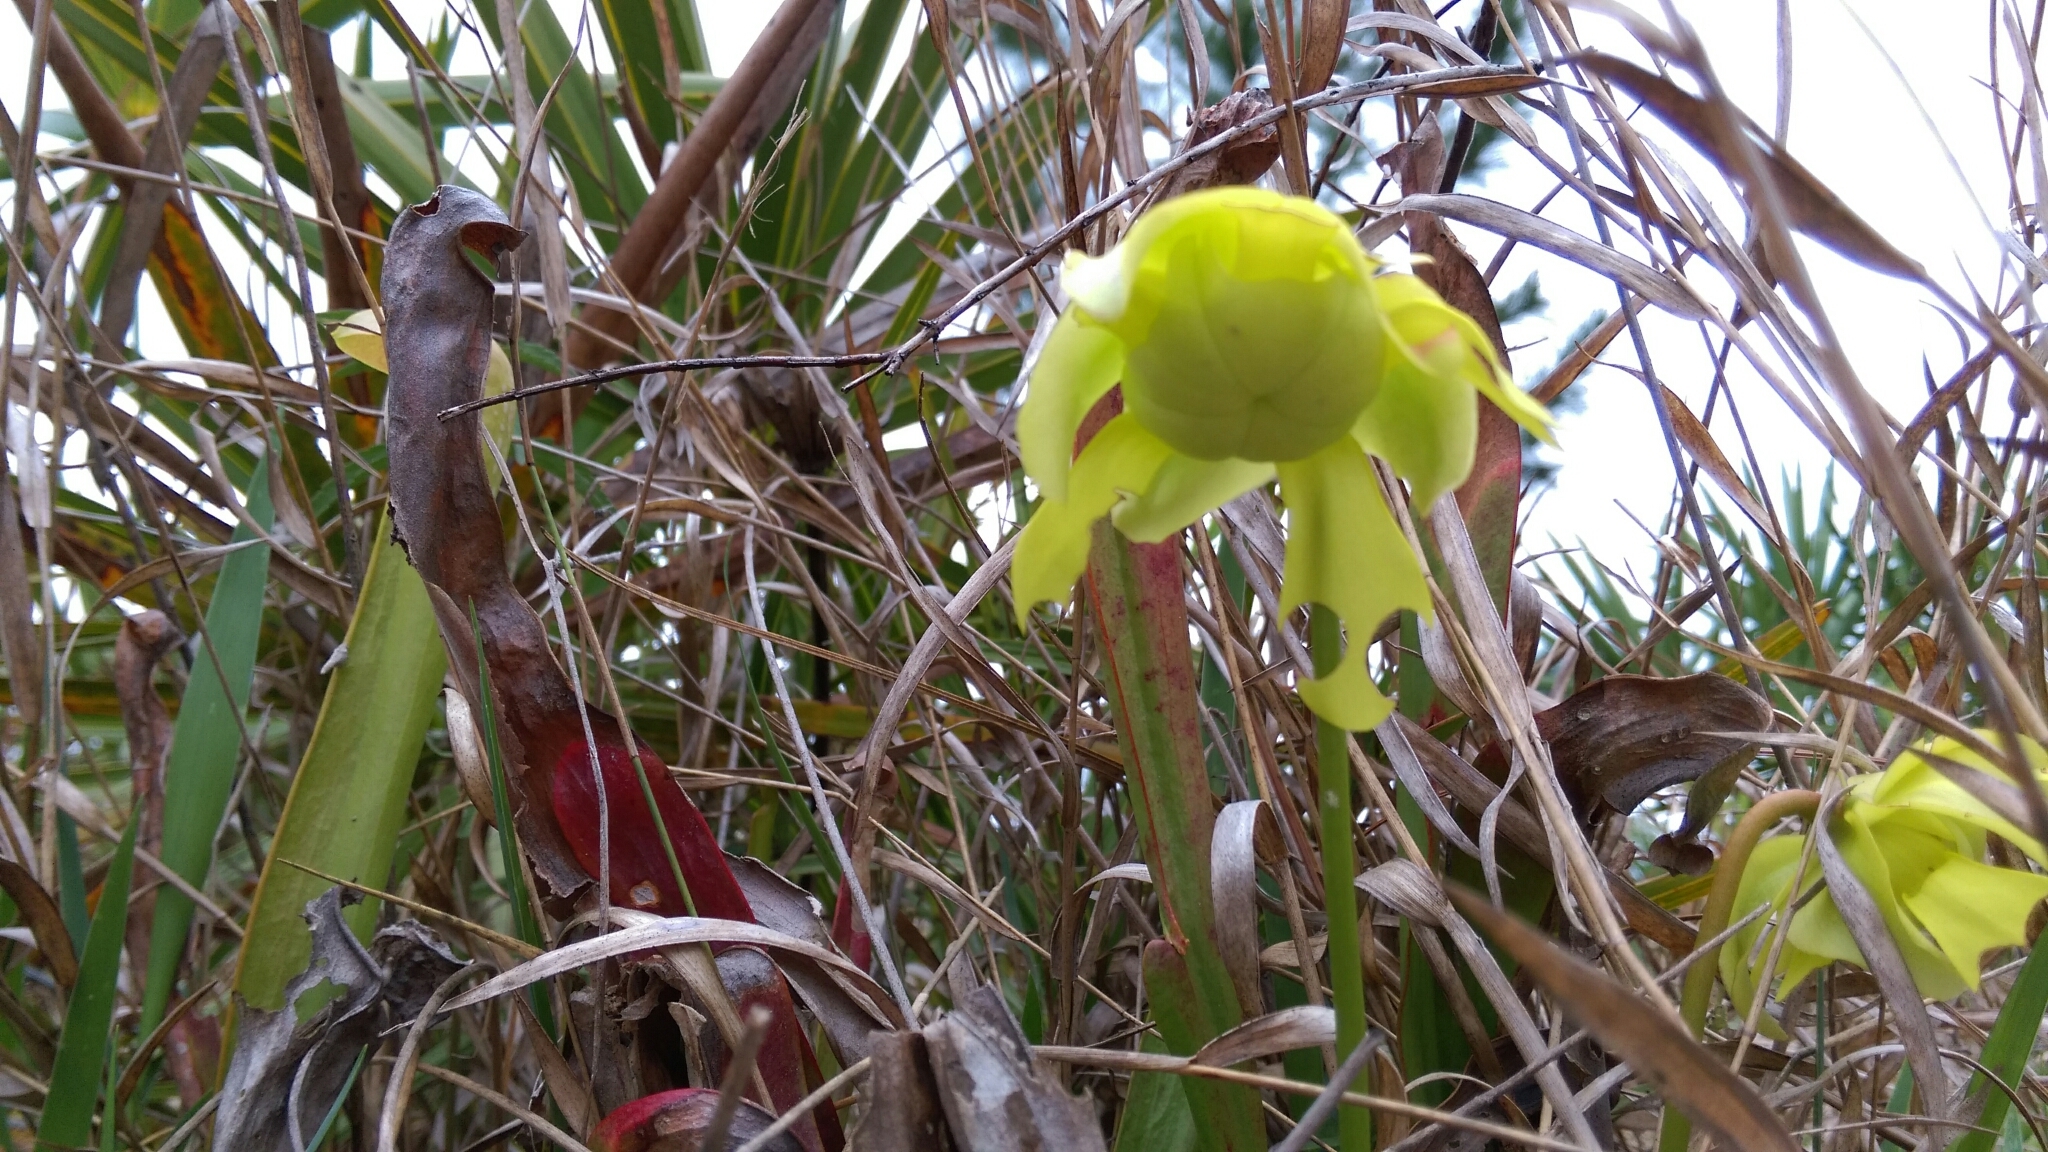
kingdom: Plantae
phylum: Tracheophyta
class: Magnoliopsida
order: Ericales
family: Sarraceniaceae
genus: Sarracenia
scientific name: Sarracenia minor
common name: Rainhat-trumpet
